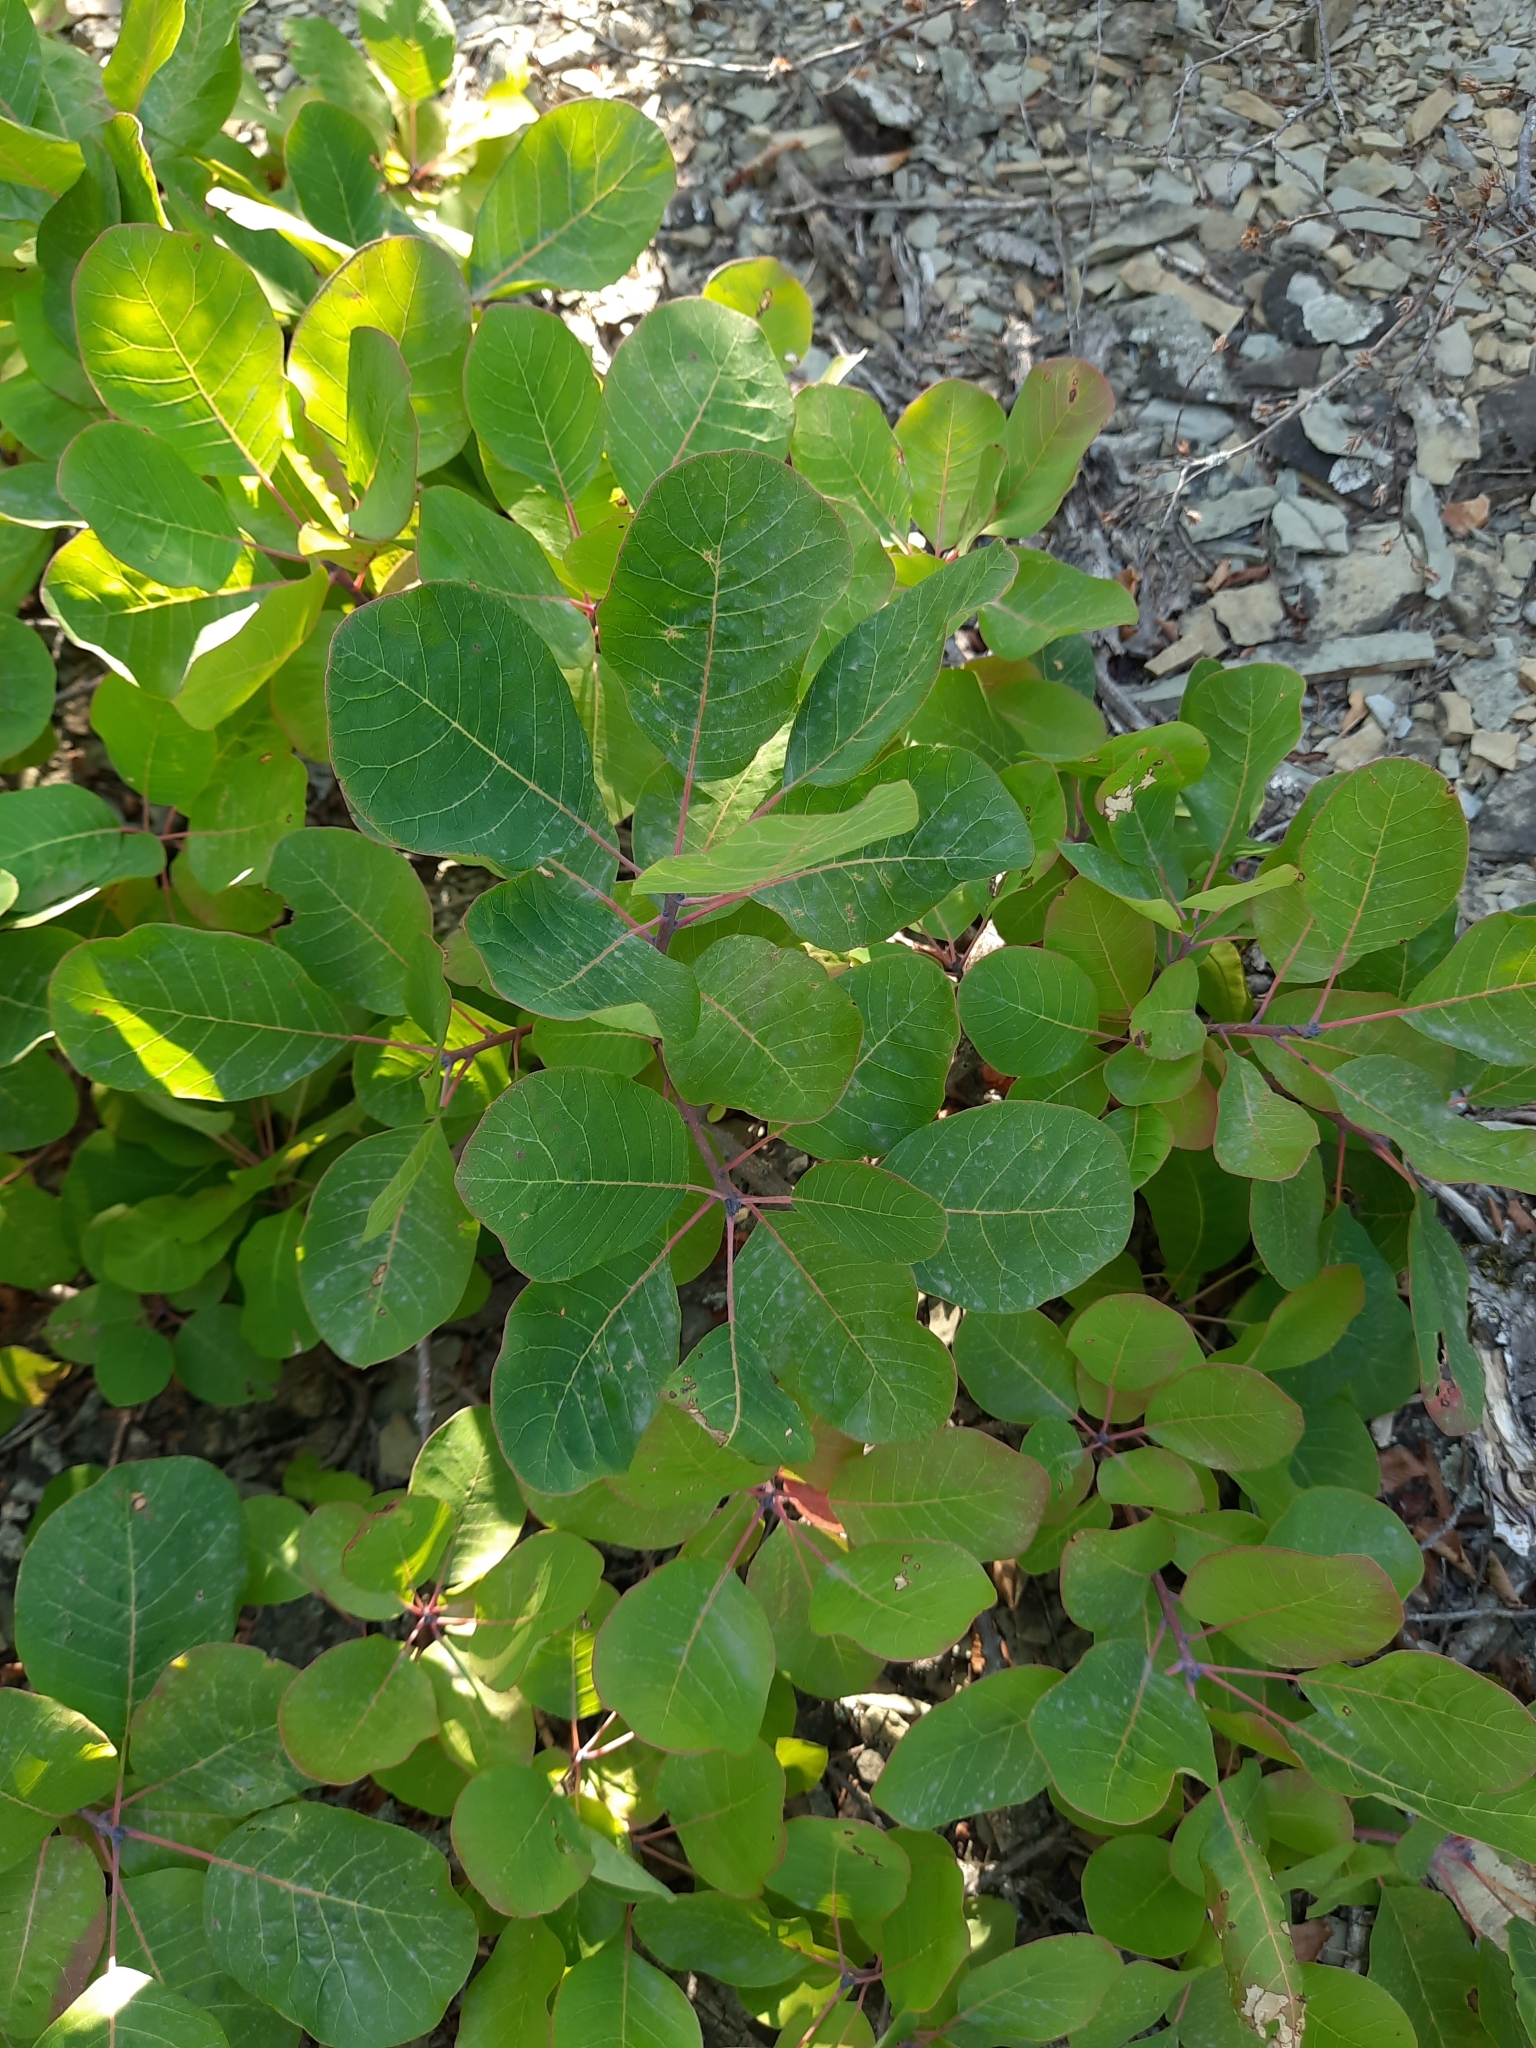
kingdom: Plantae
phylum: Tracheophyta
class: Magnoliopsida
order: Sapindales
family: Anacardiaceae
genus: Cotinus
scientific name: Cotinus coggygria
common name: Smoke-tree
